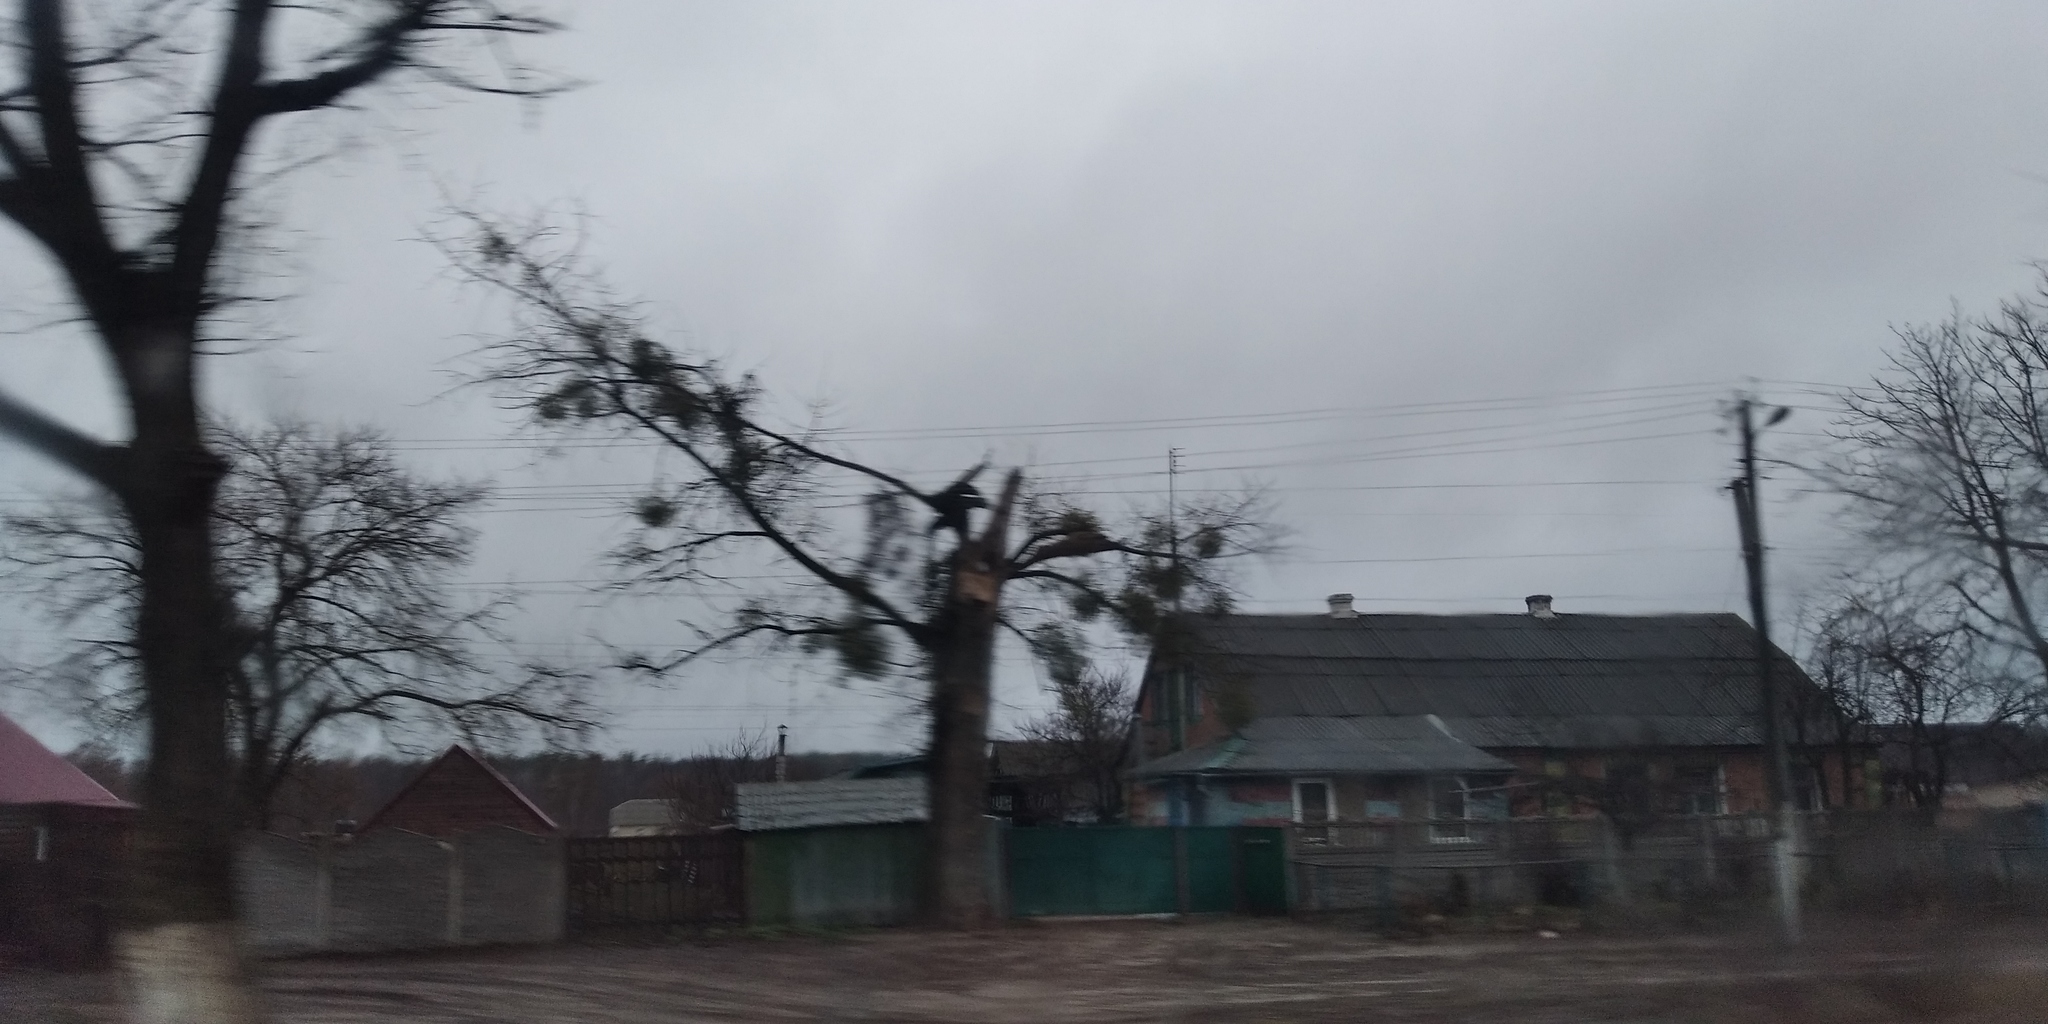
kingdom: Plantae
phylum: Tracheophyta
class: Magnoliopsida
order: Santalales
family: Viscaceae
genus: Viscum
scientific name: Viscum album
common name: Mistletoe
